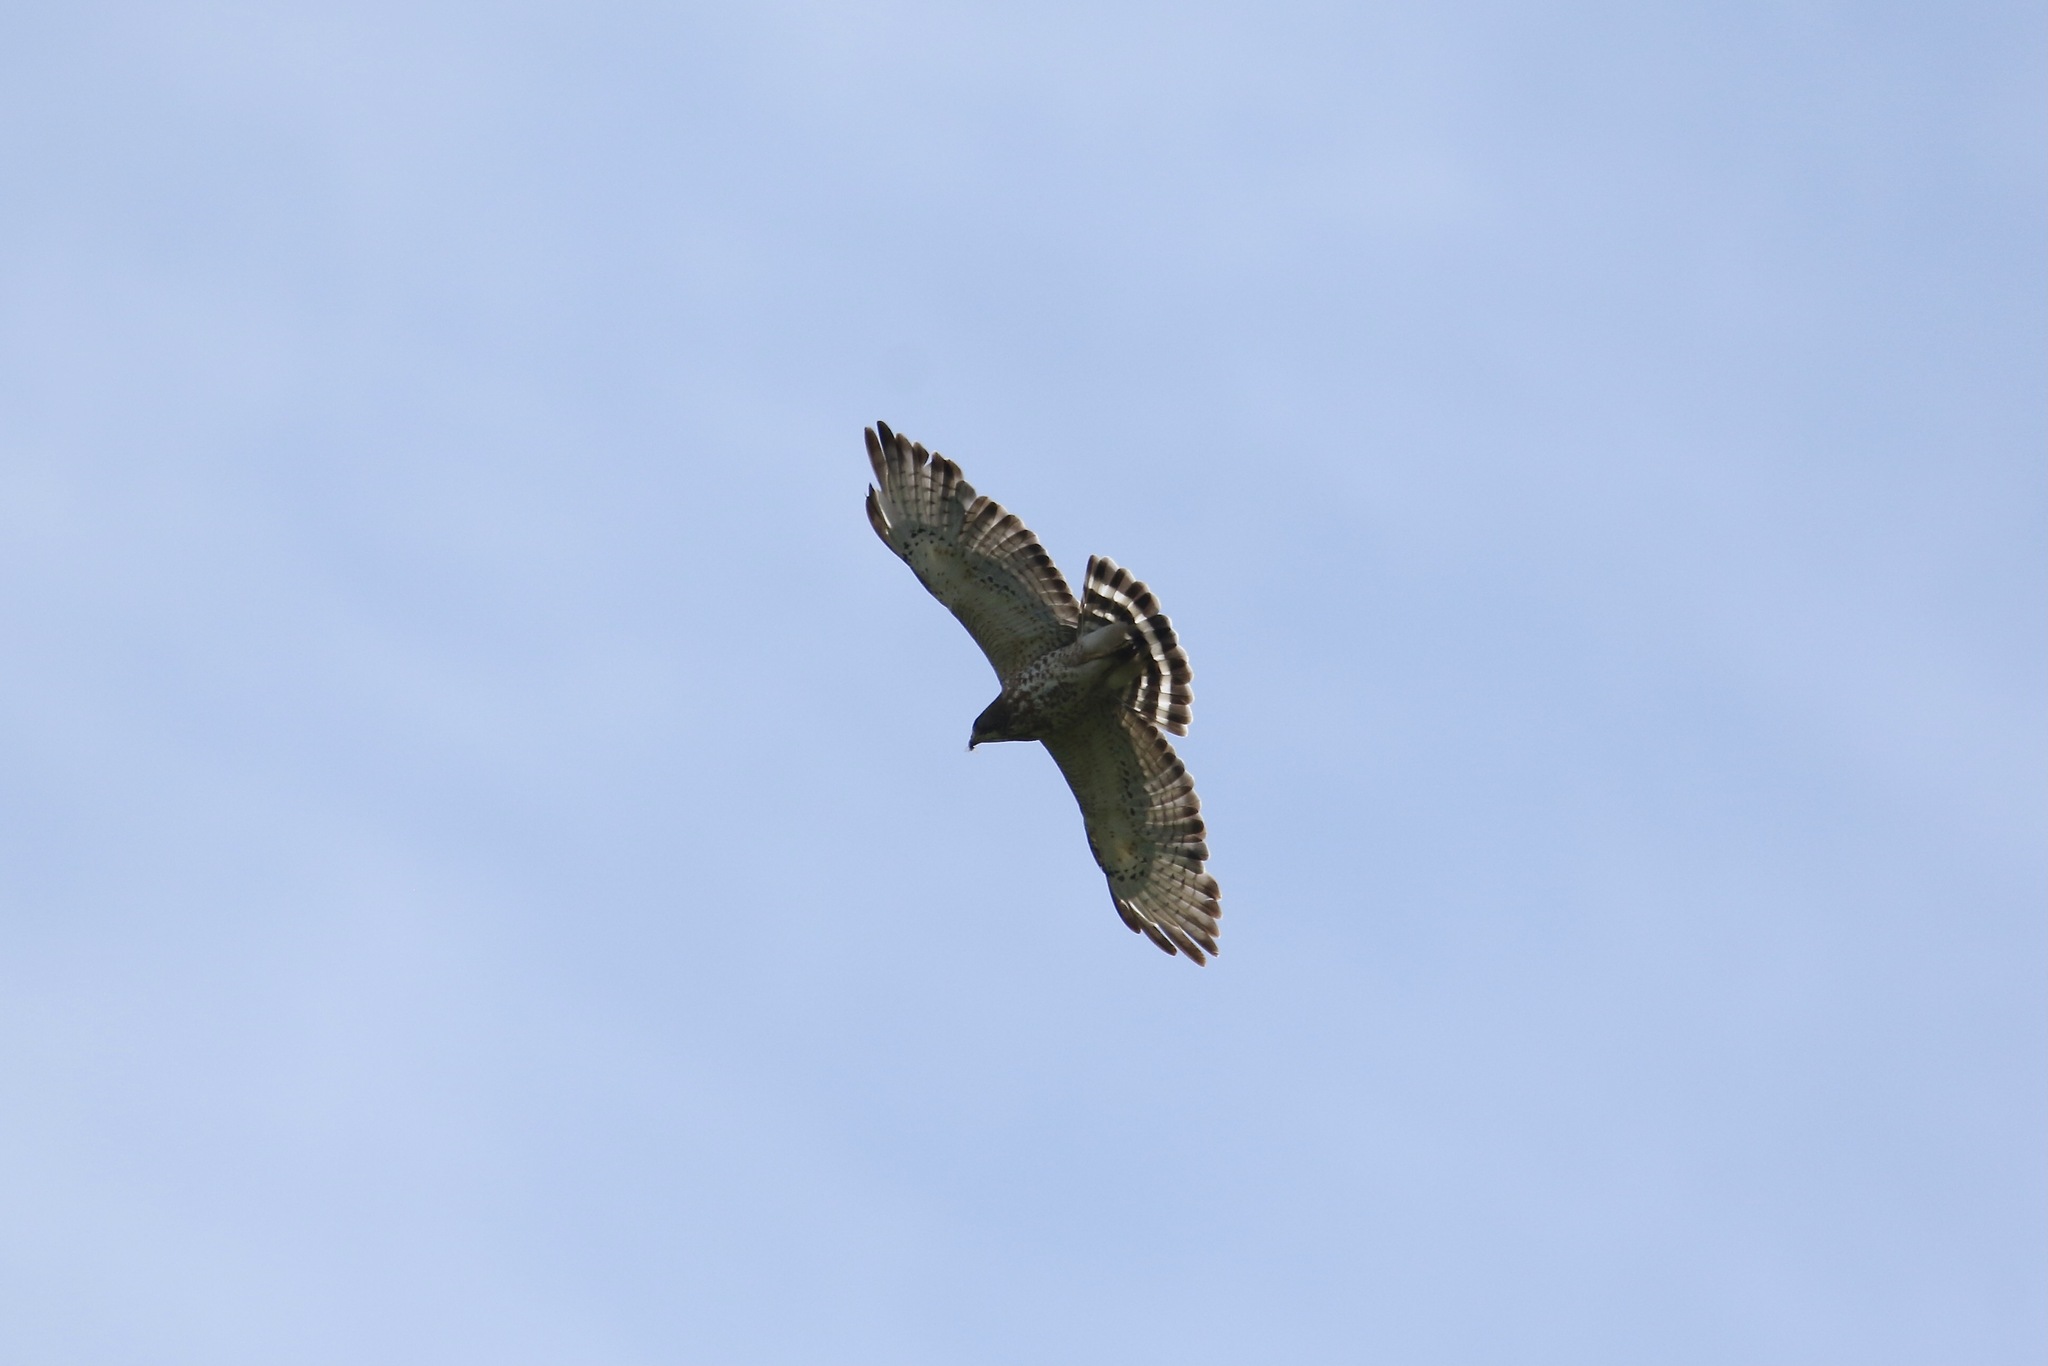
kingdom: Animalia
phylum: Chordata
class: Aves
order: Accipitriformes
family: Accipitridae
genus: Buteo
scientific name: Buteo platypterus
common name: Broad-winged hawk
